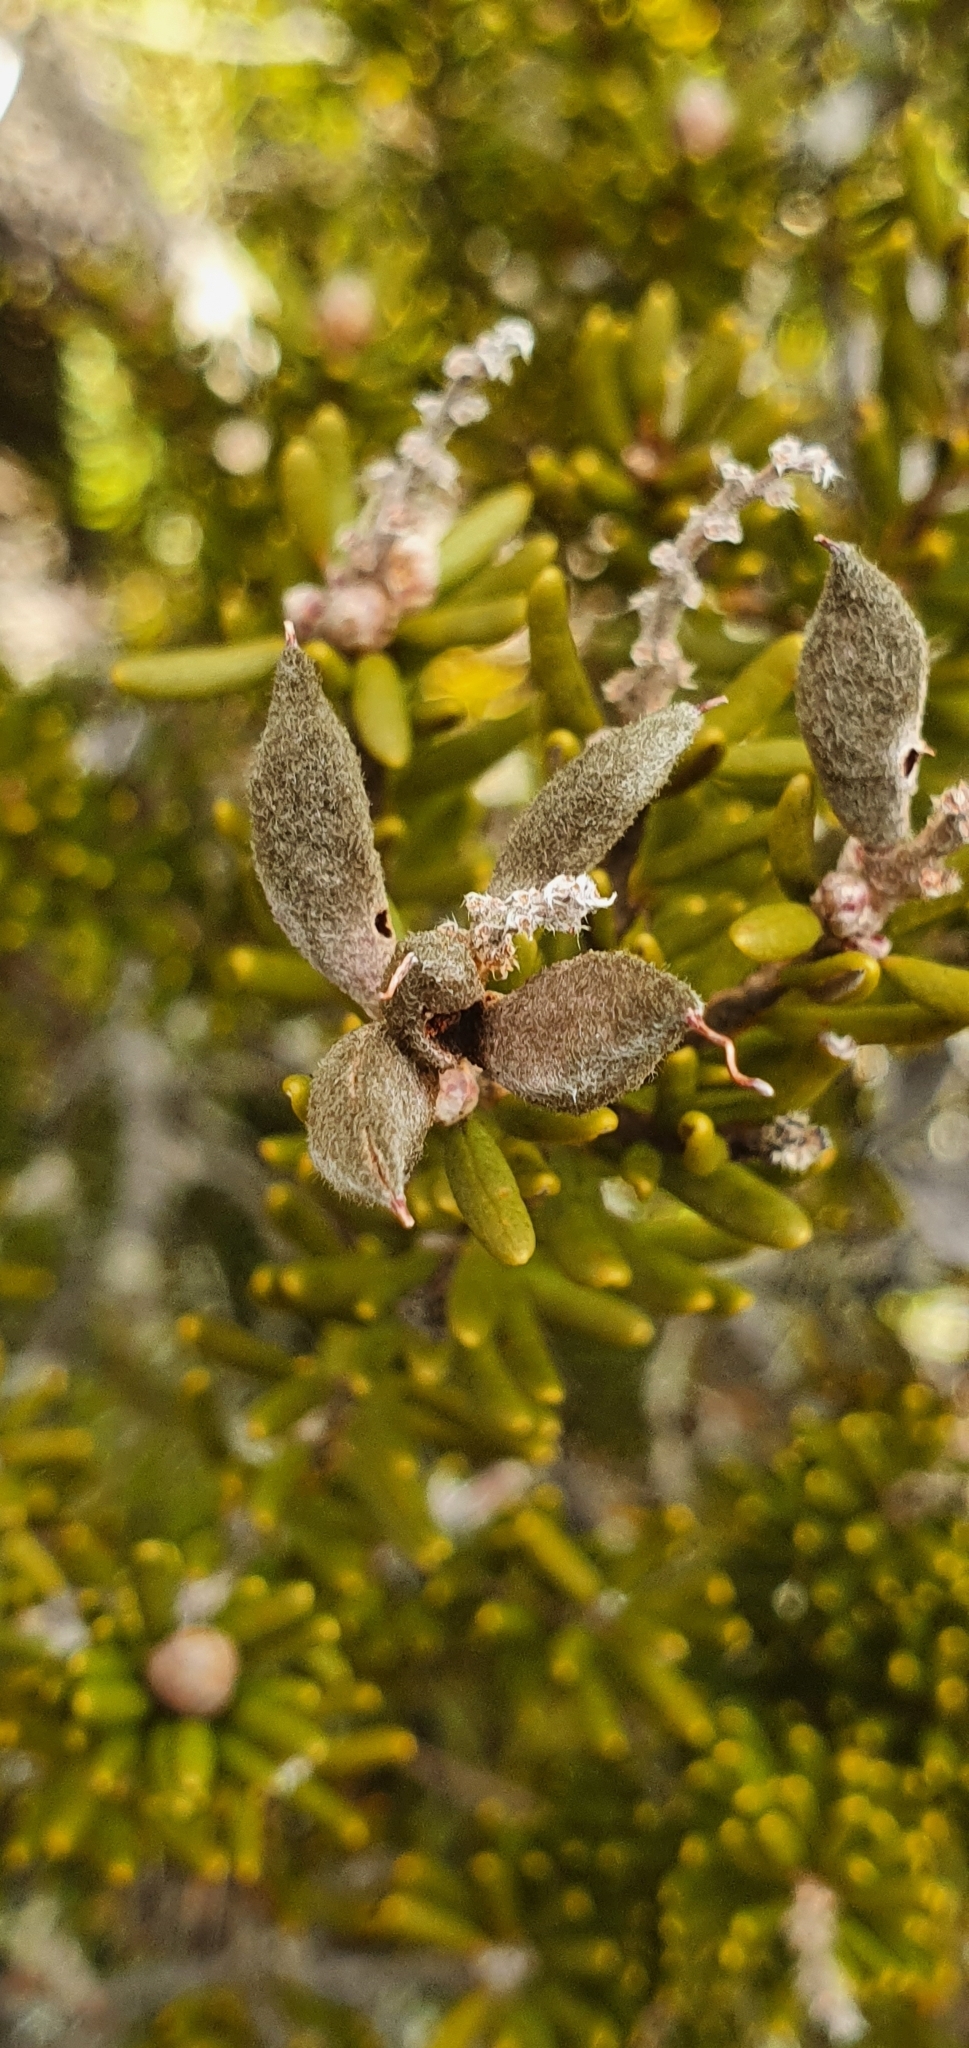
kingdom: Plantae
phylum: Tracheophyta
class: Magnoliopsida
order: Proteales
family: Proteaceae
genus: Orites
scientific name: Orites revolutus
